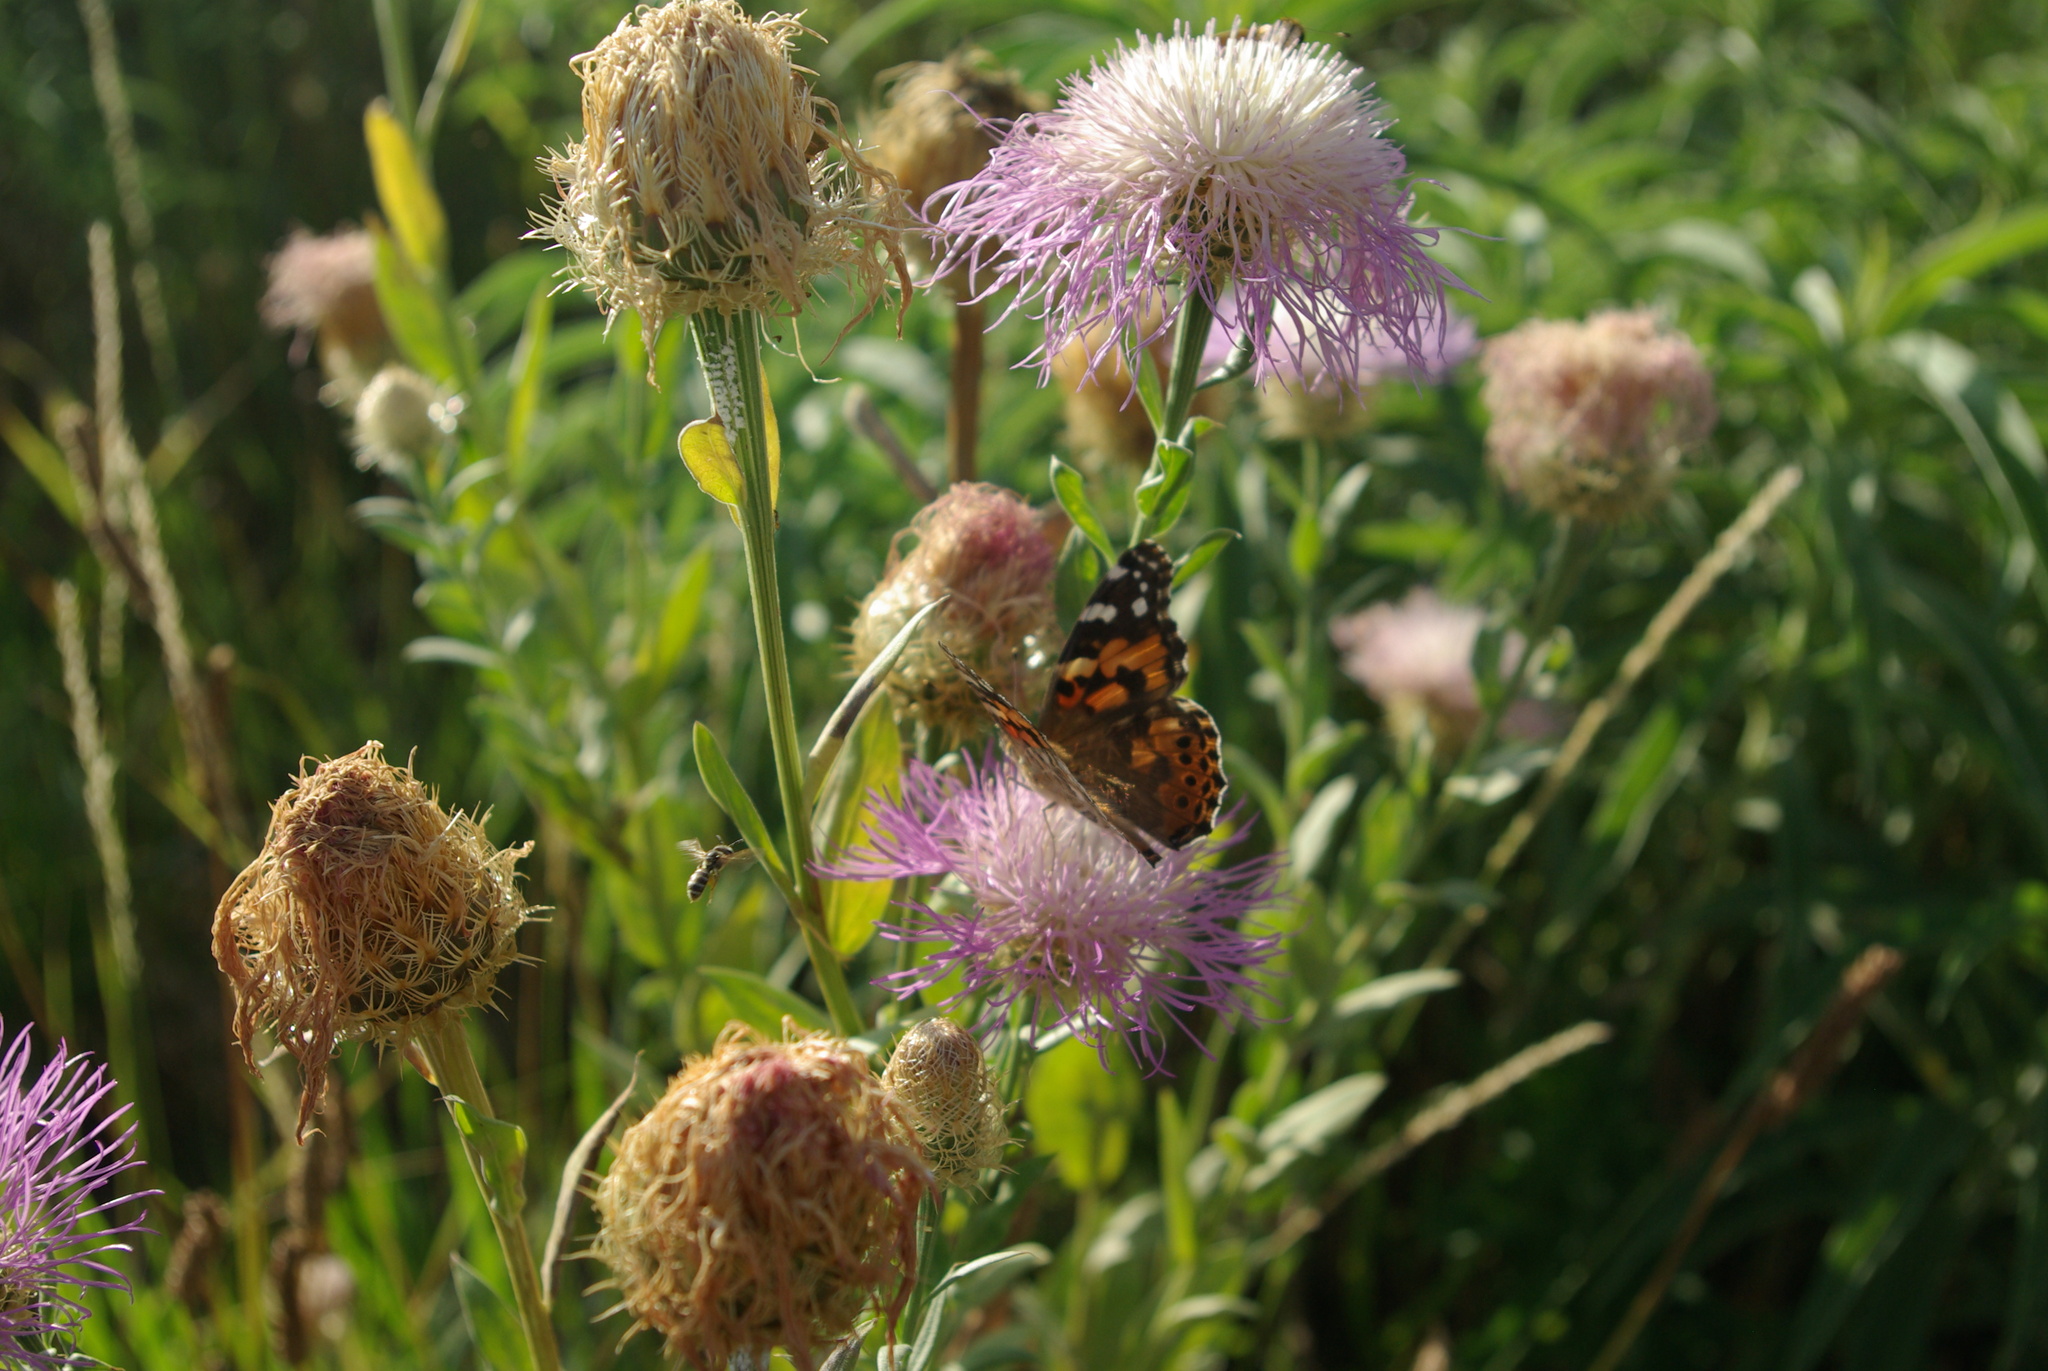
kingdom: Animalia
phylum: Arthropoda
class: Insecta
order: Lepidoptera
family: Nymphalidae
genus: Vanessa
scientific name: Vanessa cardui
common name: Painted lady
